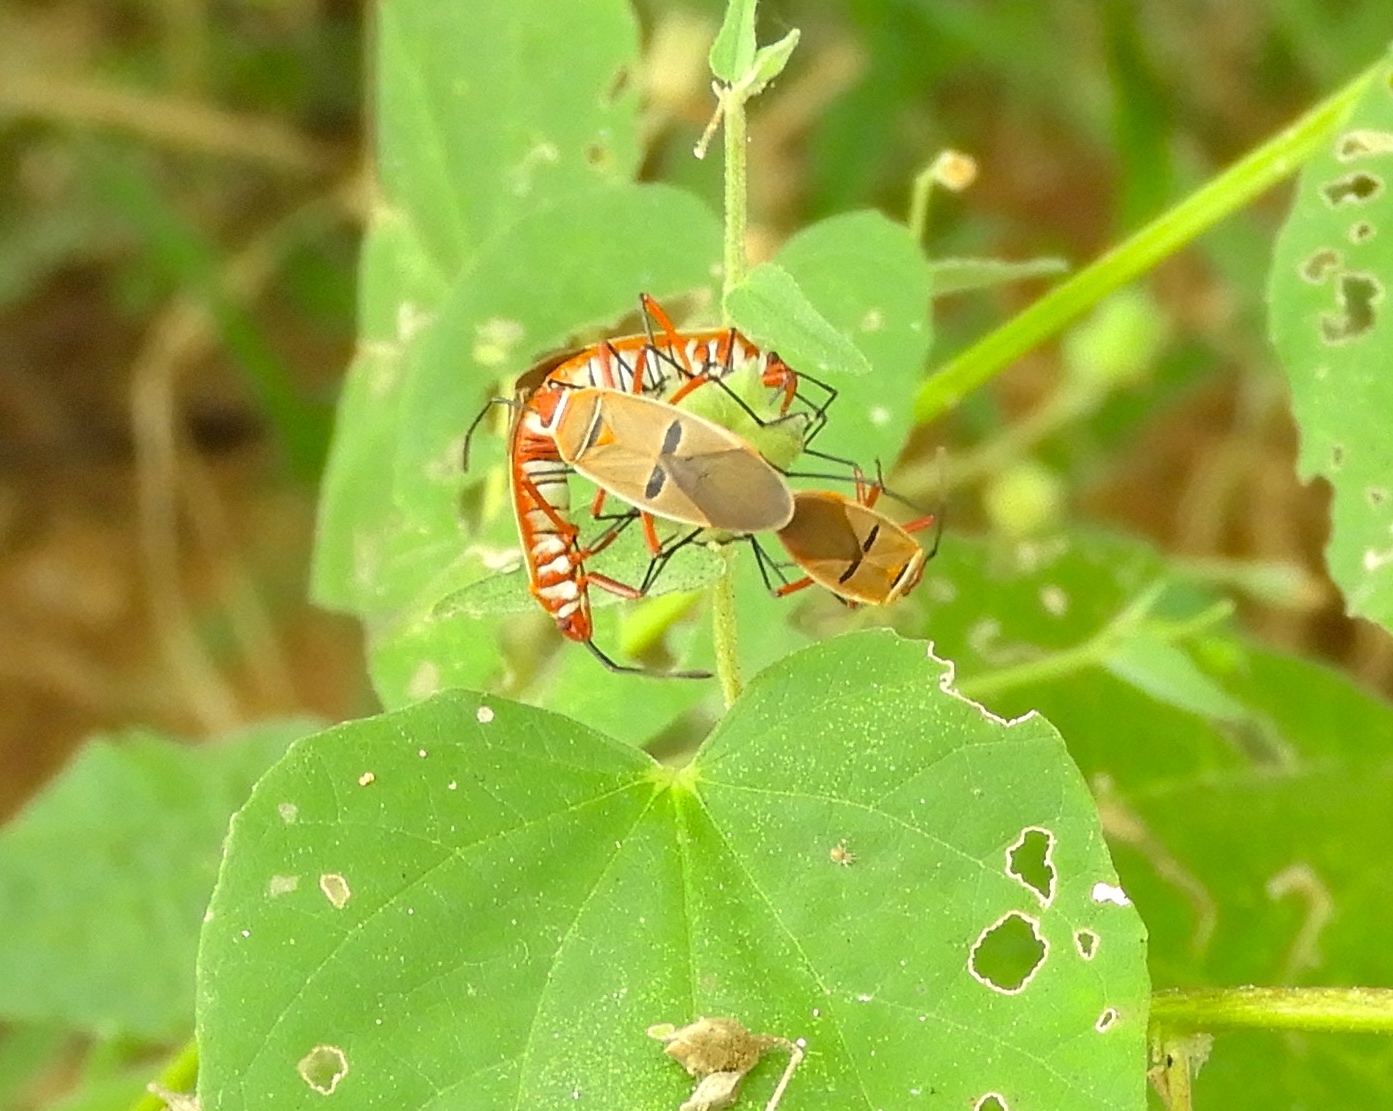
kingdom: Animalia
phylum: Arthropoda
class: Insecta
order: Hemiptera
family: Pyrrhocoridae
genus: Dysdercus
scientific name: Dysdercus
